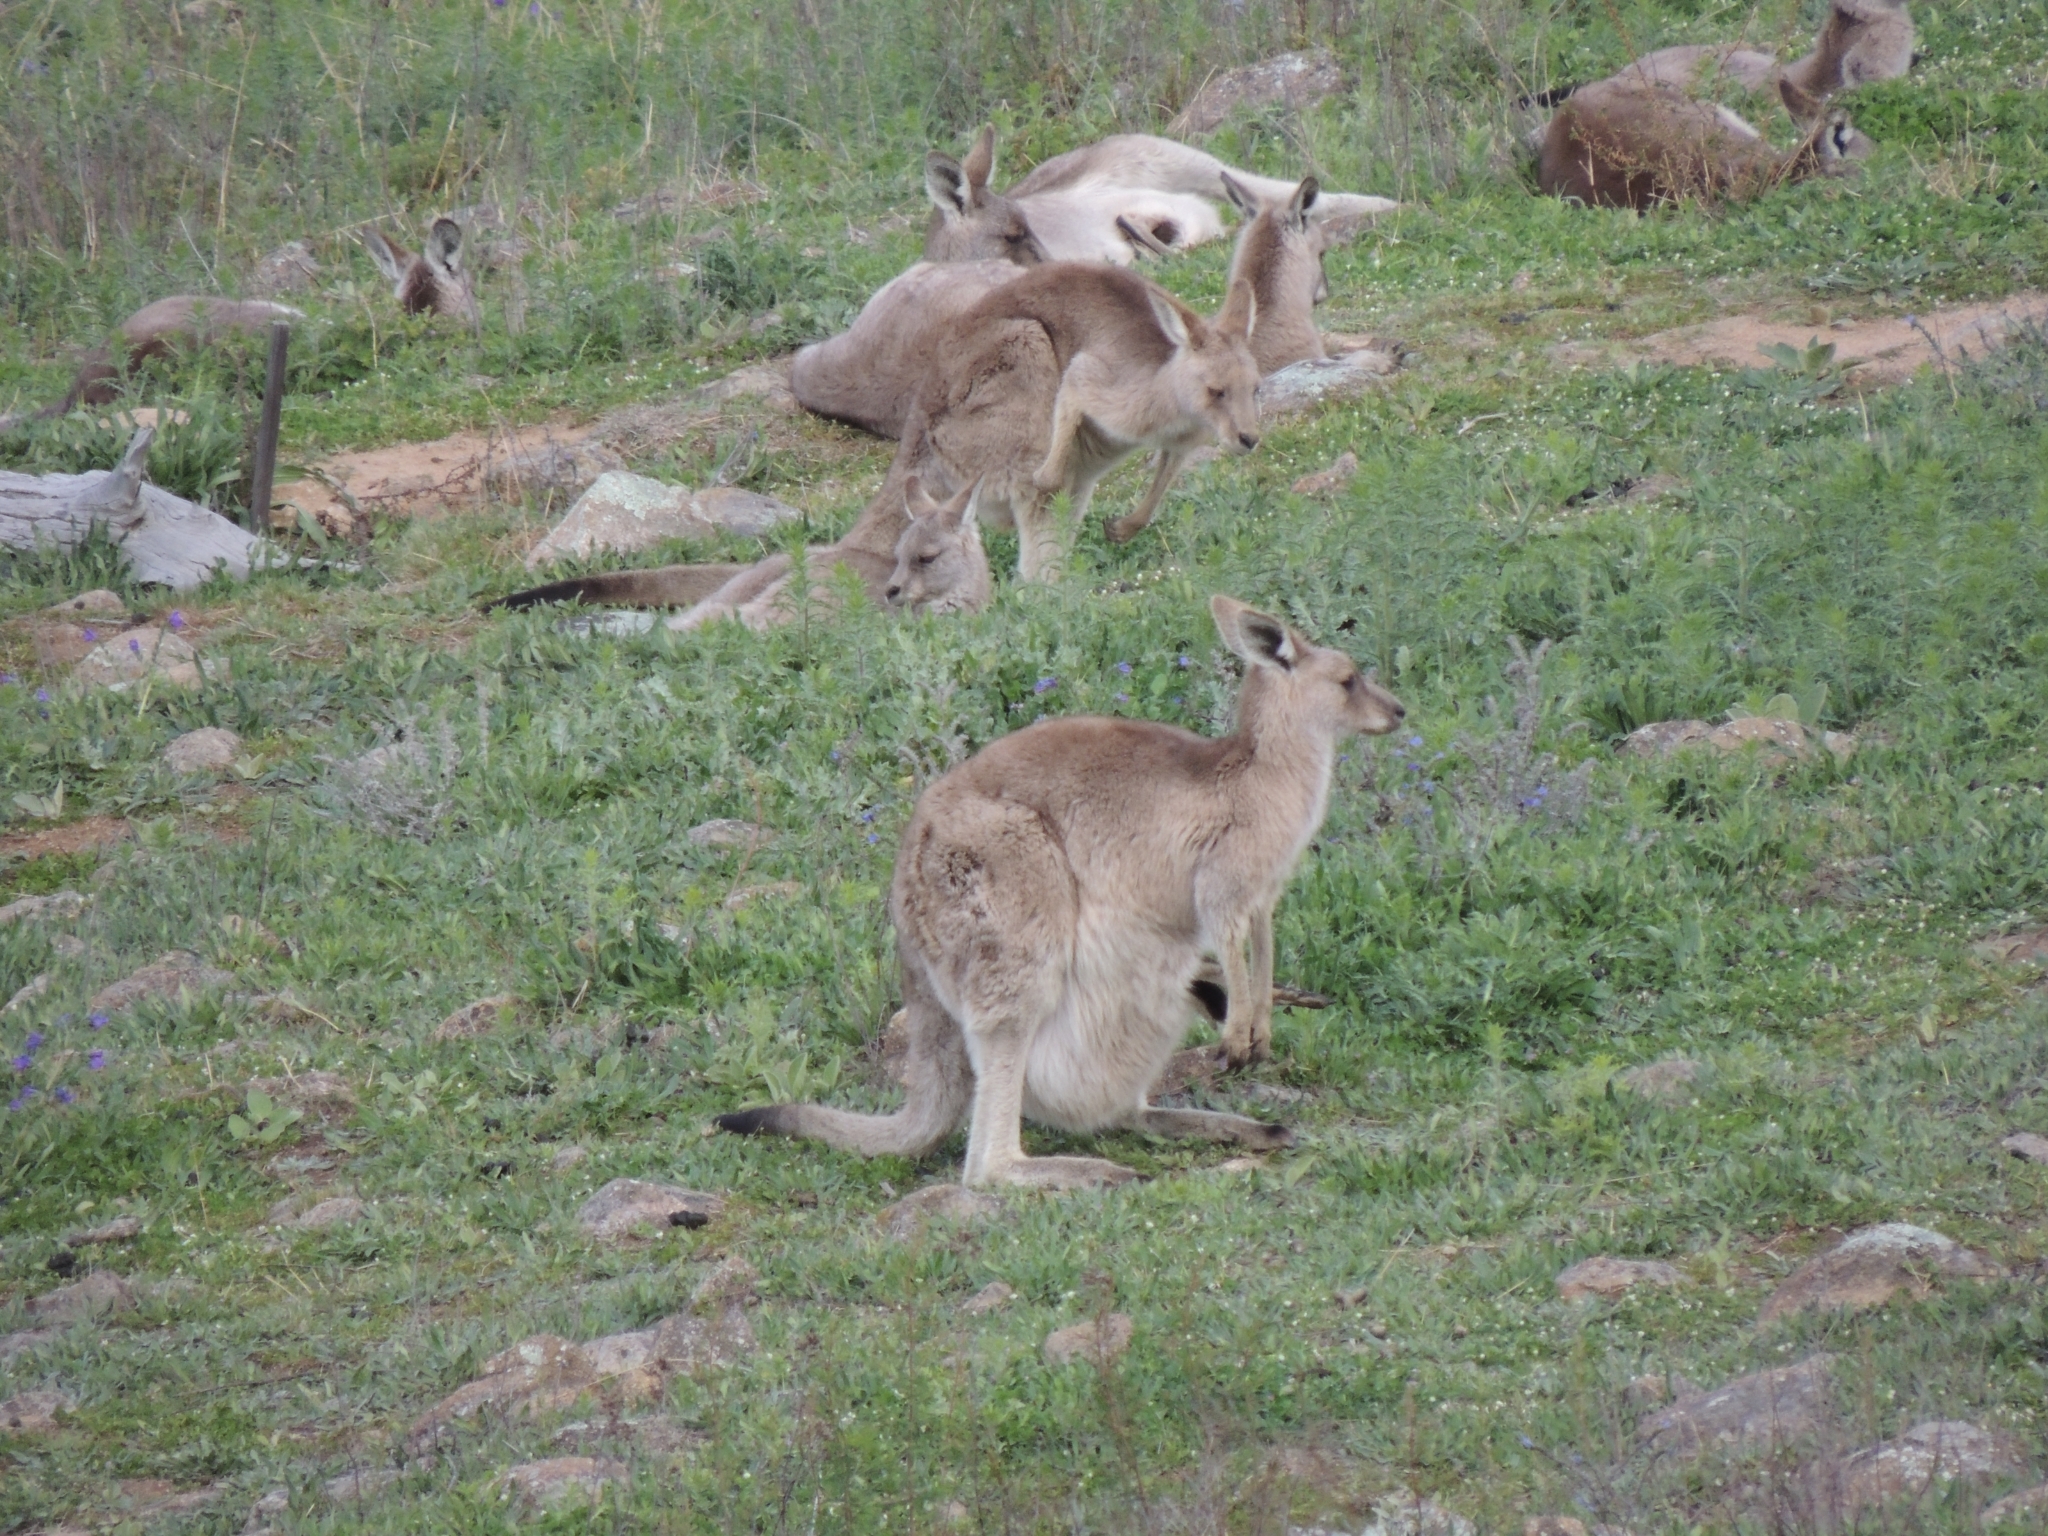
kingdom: Animalia
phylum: Chordata
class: Mammalia
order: Diprotodontia
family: Macropodidae
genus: Macropus
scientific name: Macropus giganteus
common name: Eastern grey kangaroo
